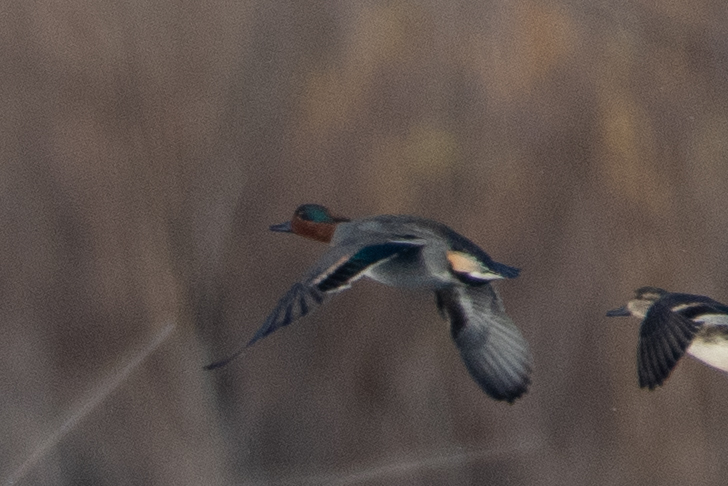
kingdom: Animalia
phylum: Chordata
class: Aves
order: Anseriformes
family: Anatidae
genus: Anas
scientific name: Anas crecca
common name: Eurasian teal
